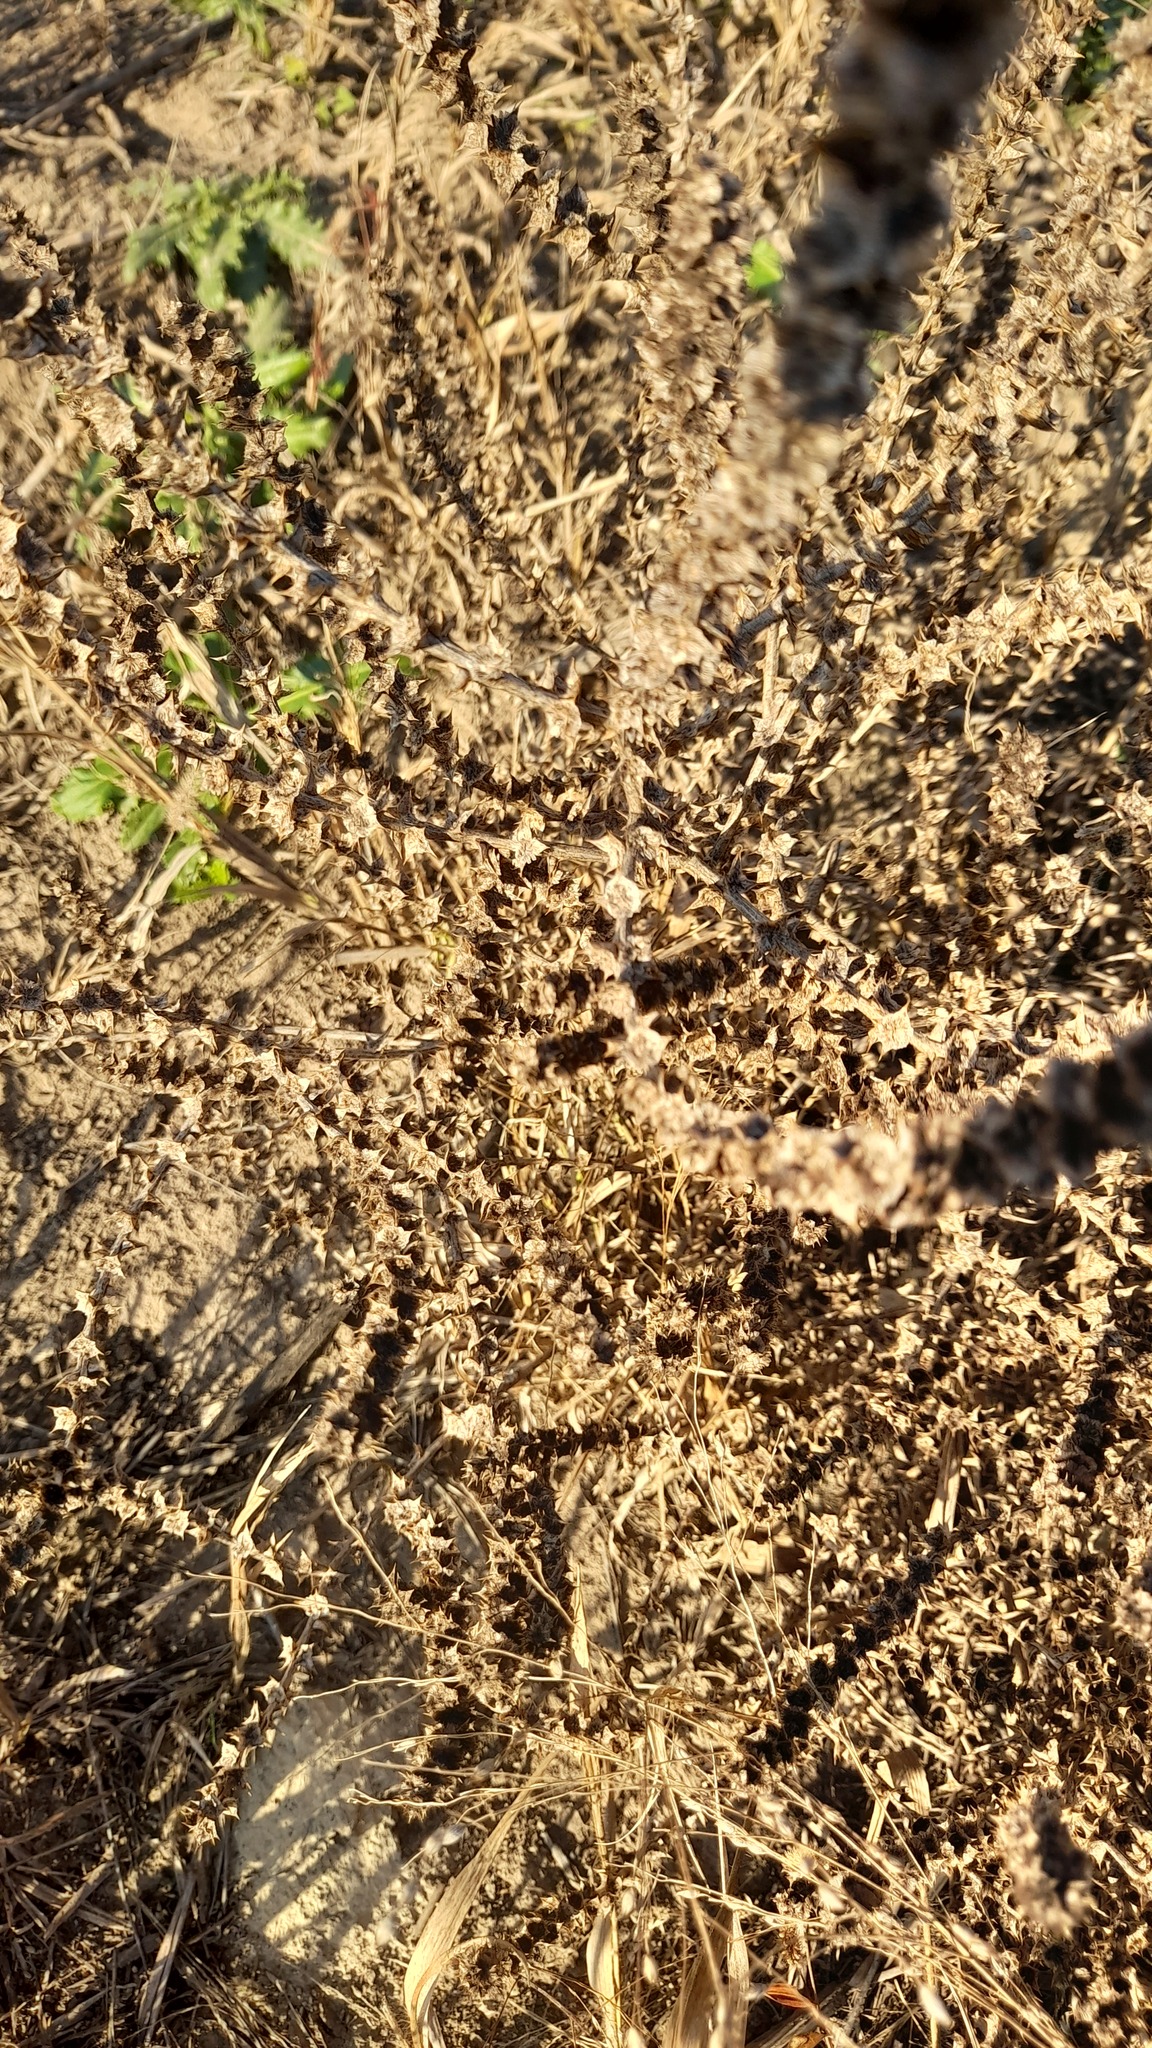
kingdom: Plantae
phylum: Tracheophyta
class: Magnoliopsida
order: Caryophyllales
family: Amaranthaceae
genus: Salsola
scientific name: Salsola tragus
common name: Prickly russian thistle
